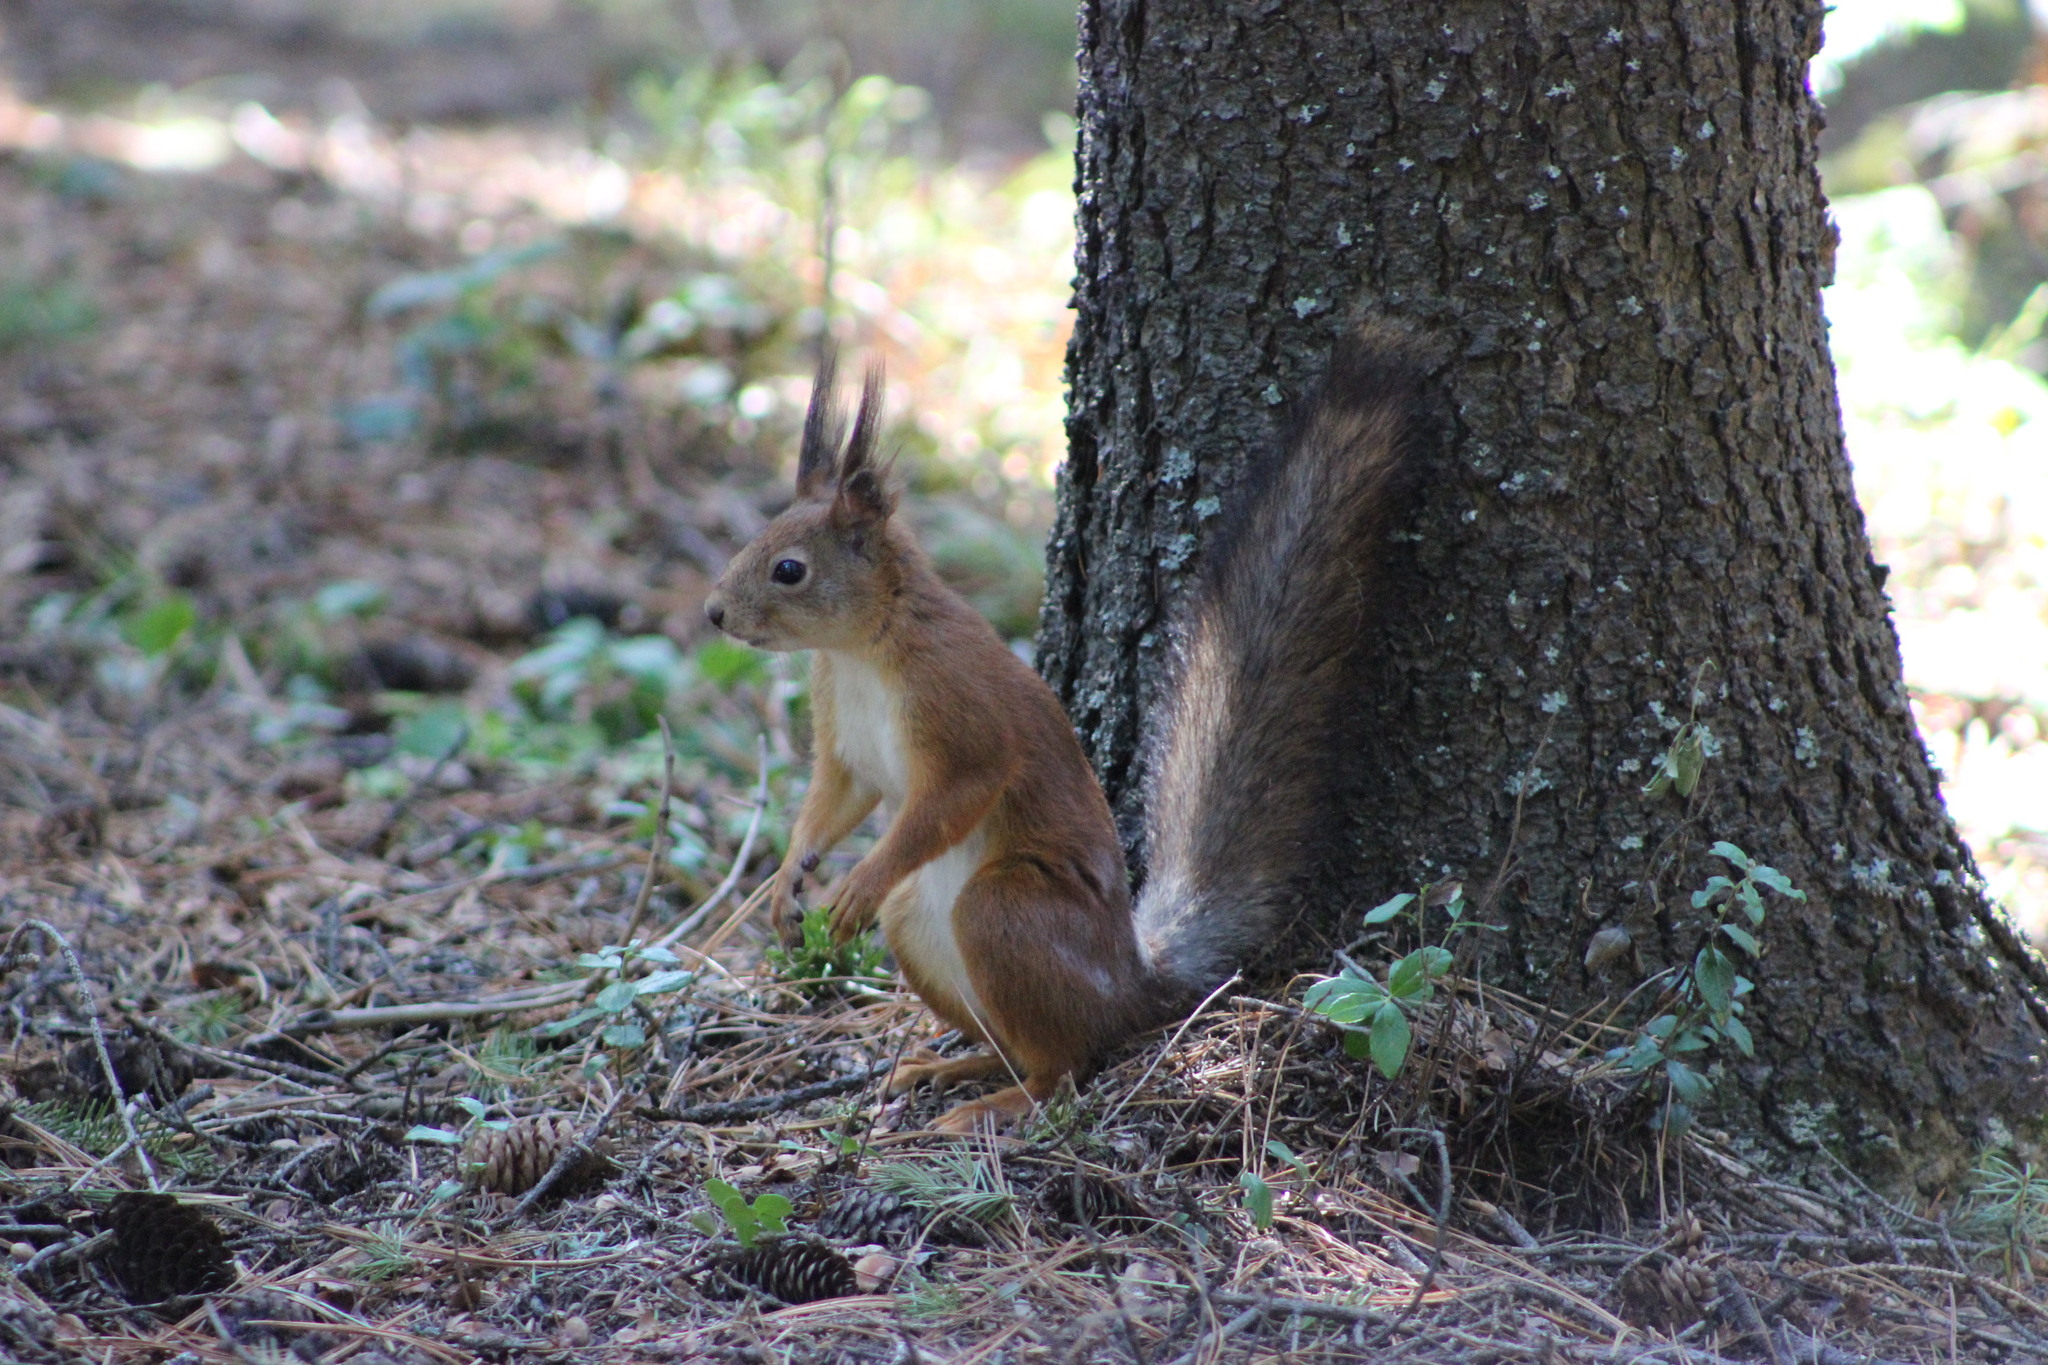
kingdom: Animalia
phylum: Chordata
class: Mammalia
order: Rodentia
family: Sciuridae
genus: Sciurus
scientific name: Sciurus vulgaris
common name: Eurasian red squirrel
